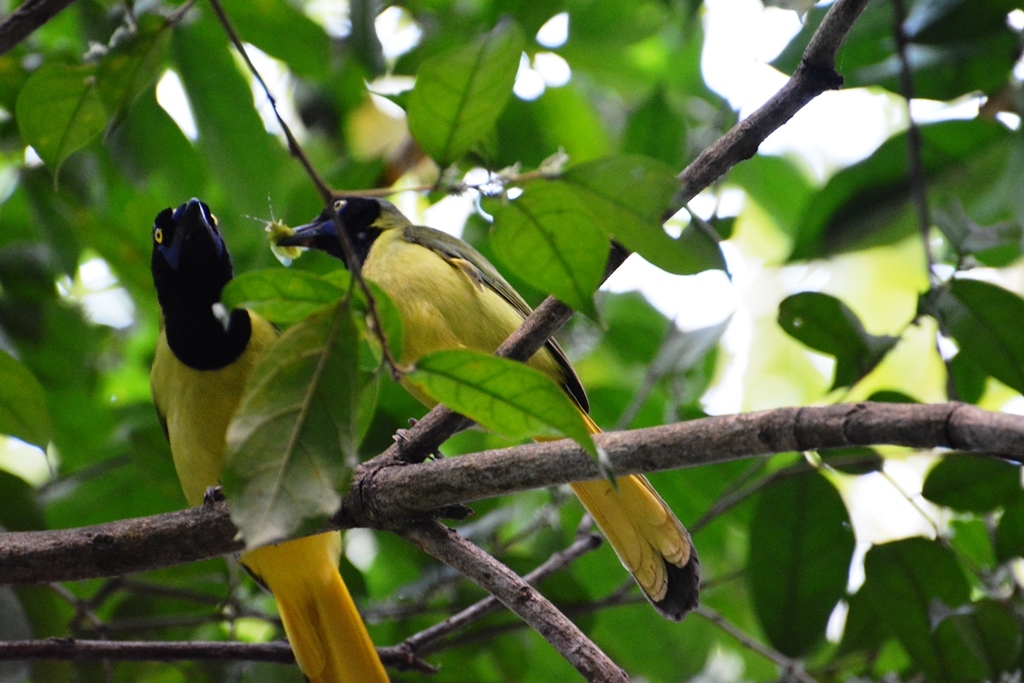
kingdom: Animalia
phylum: Chordata
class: Aves
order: Passeriformes
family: Corvidae
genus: Cyanocorax
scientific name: Cyanocorax yncas
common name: Green jay
